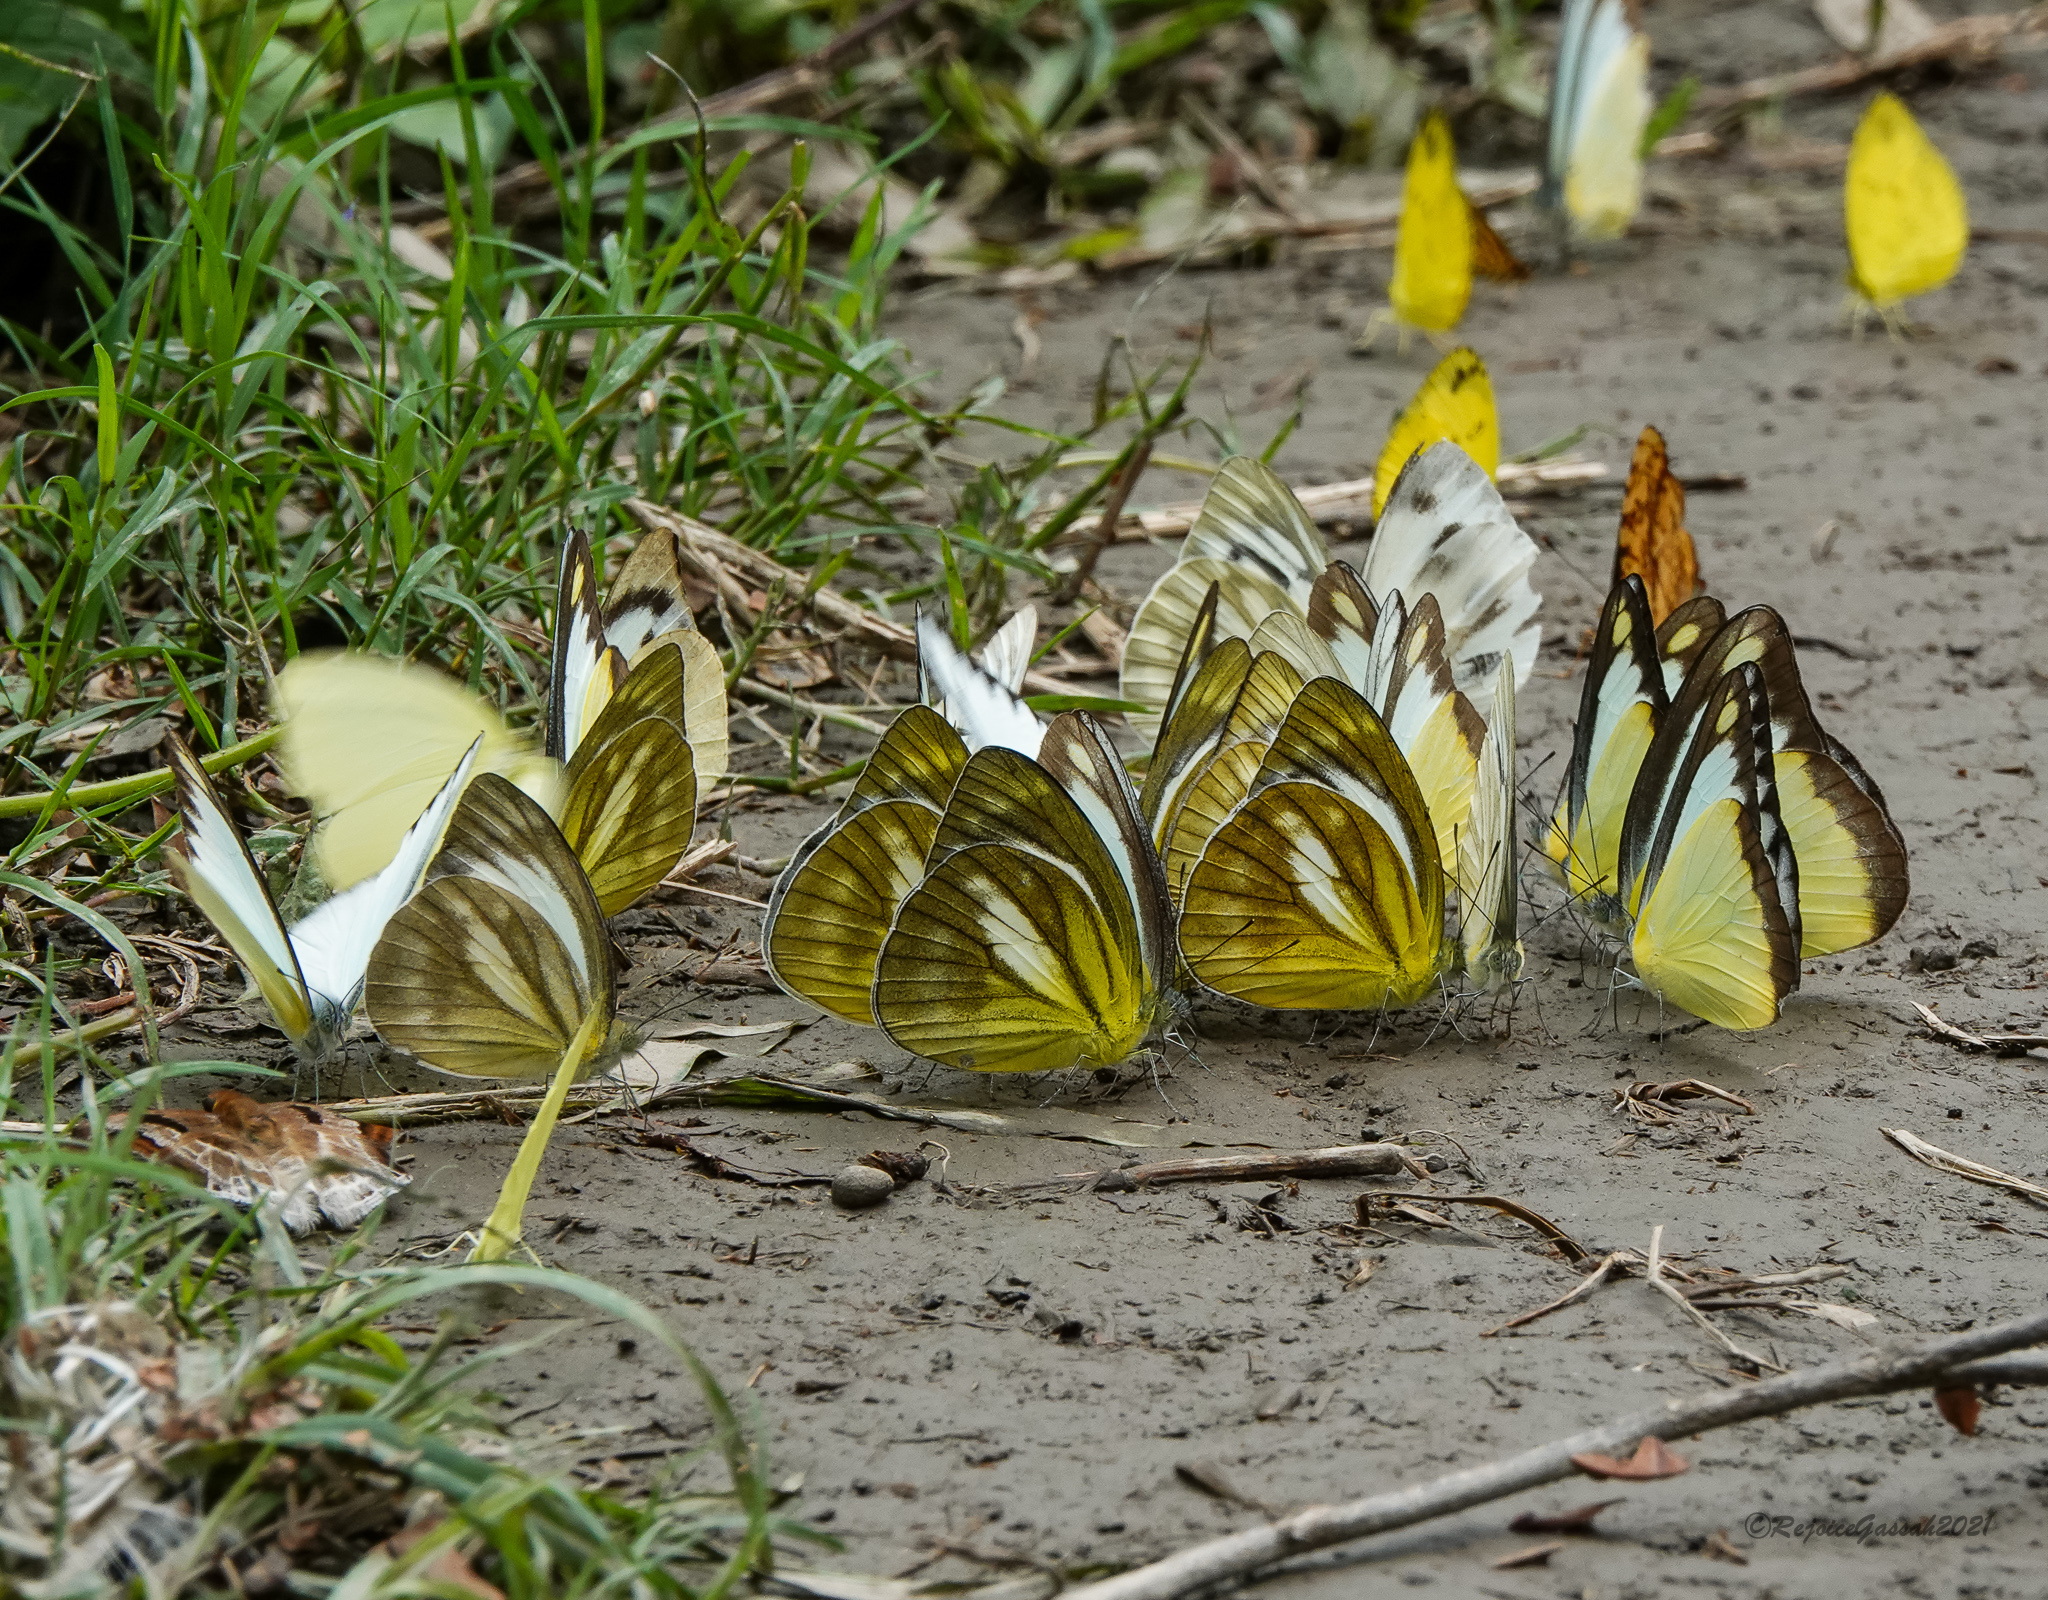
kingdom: Animalia
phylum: Arthropoda
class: Insecta
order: Lepidoptera
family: Pieridae
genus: Cepora
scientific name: Cepora nadina
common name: Lesser gull
